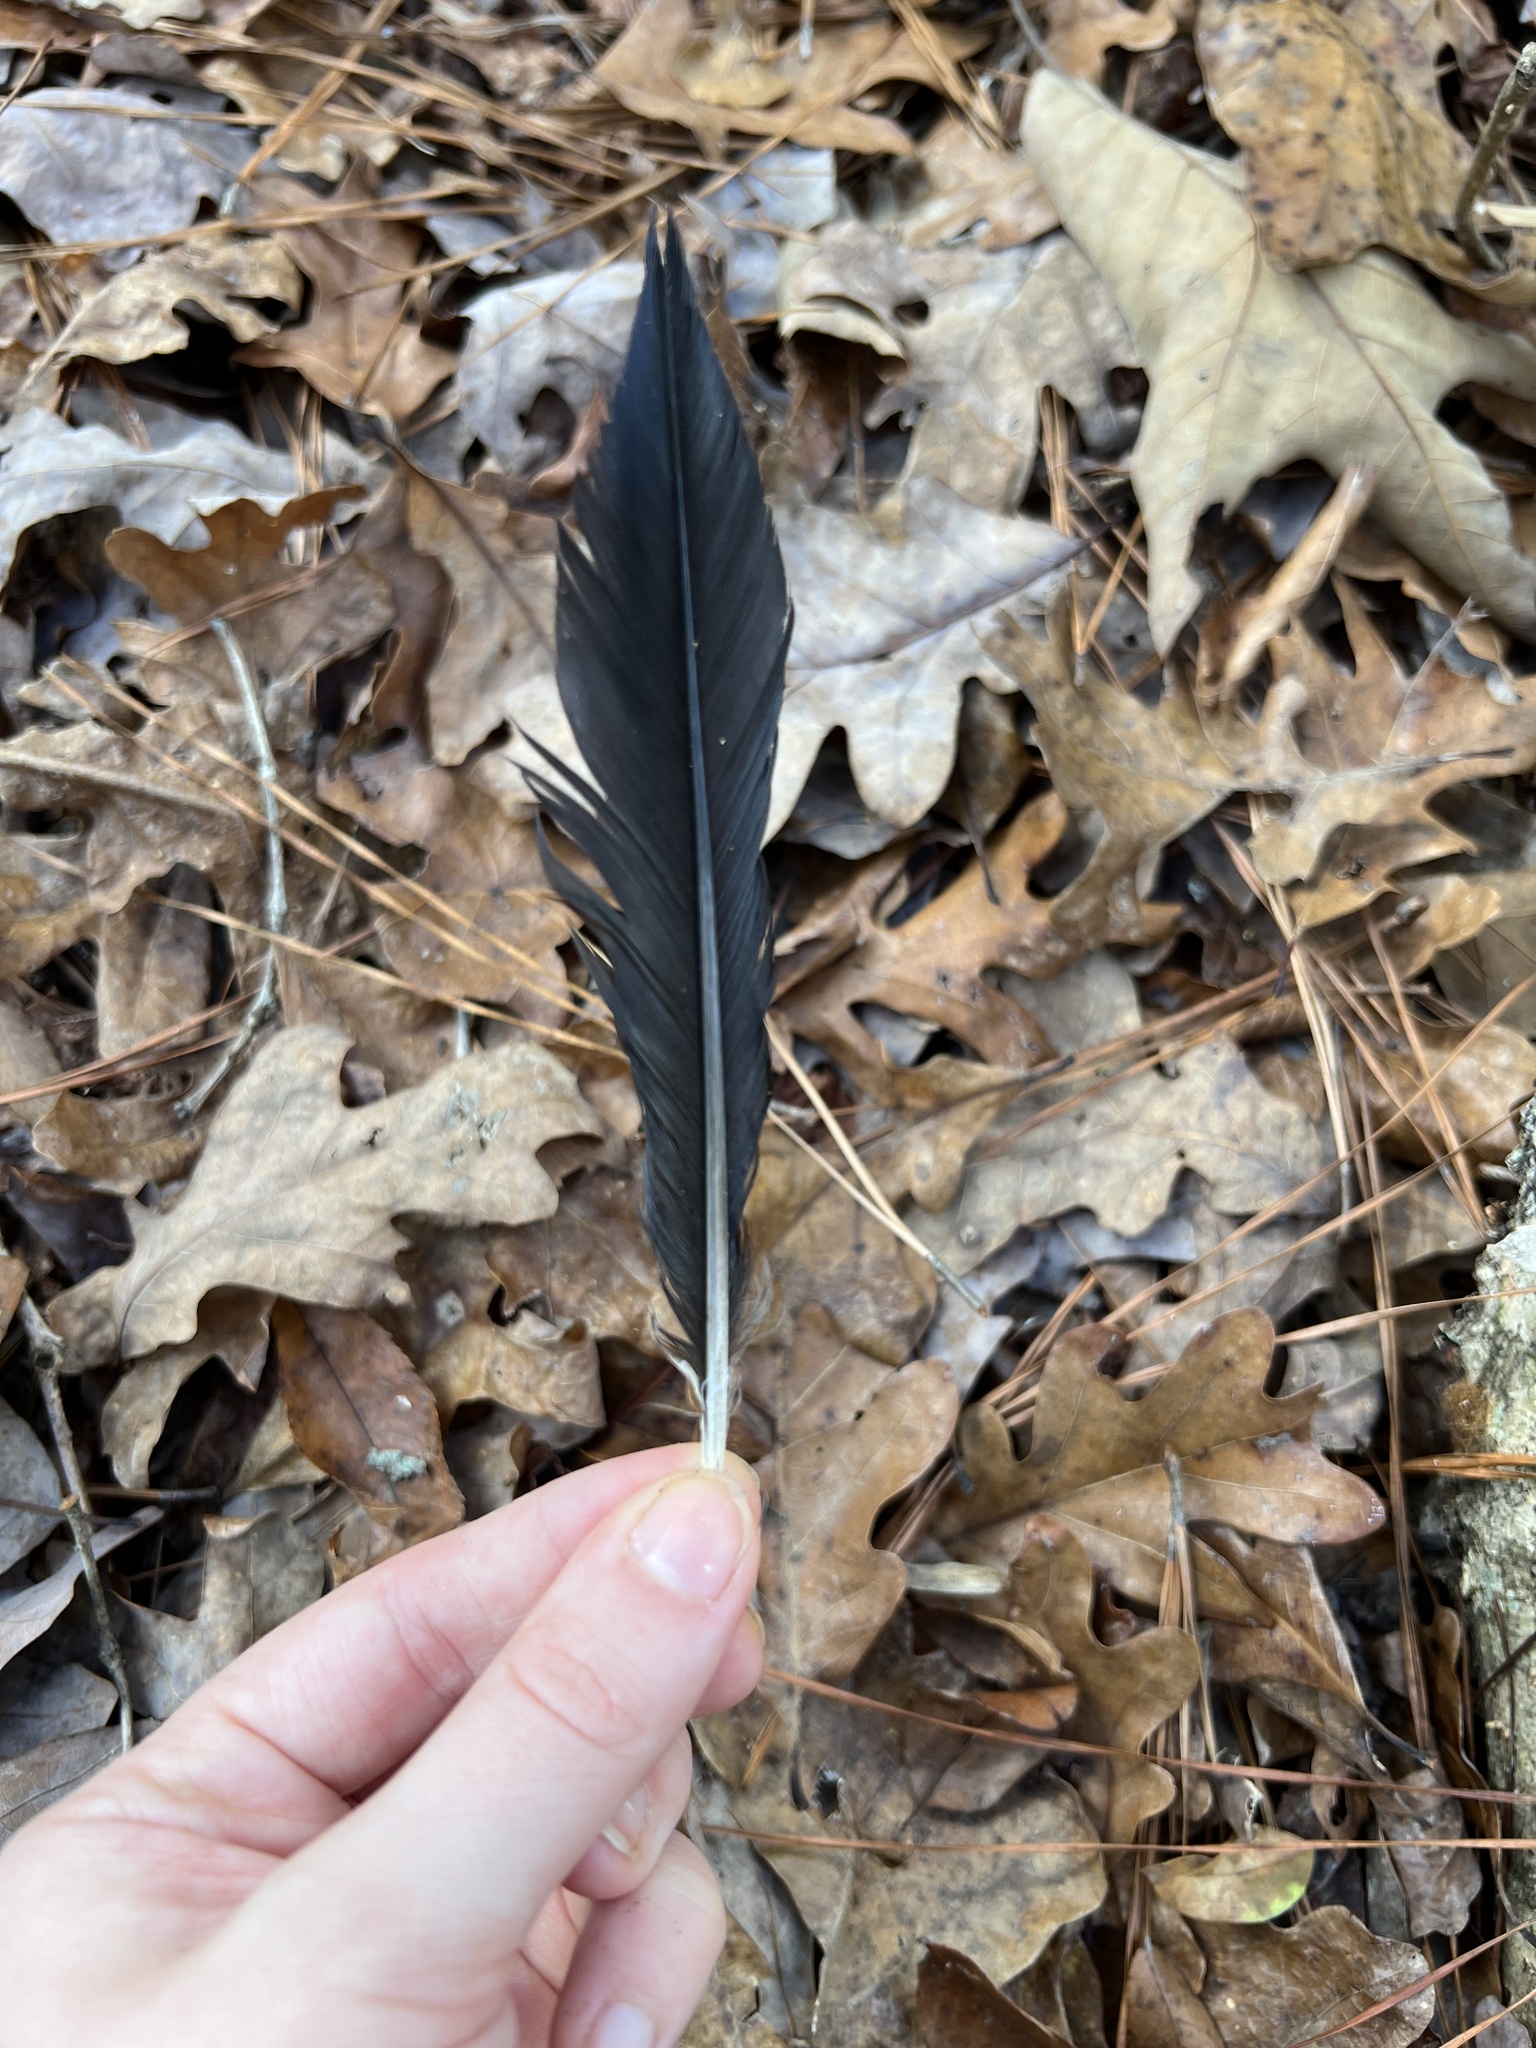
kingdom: Animalia
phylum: Chordata
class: Aves
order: Piciformes
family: Picidae
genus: Dryocopus
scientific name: Dryocopus pileatus
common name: Pileated woodpecker
